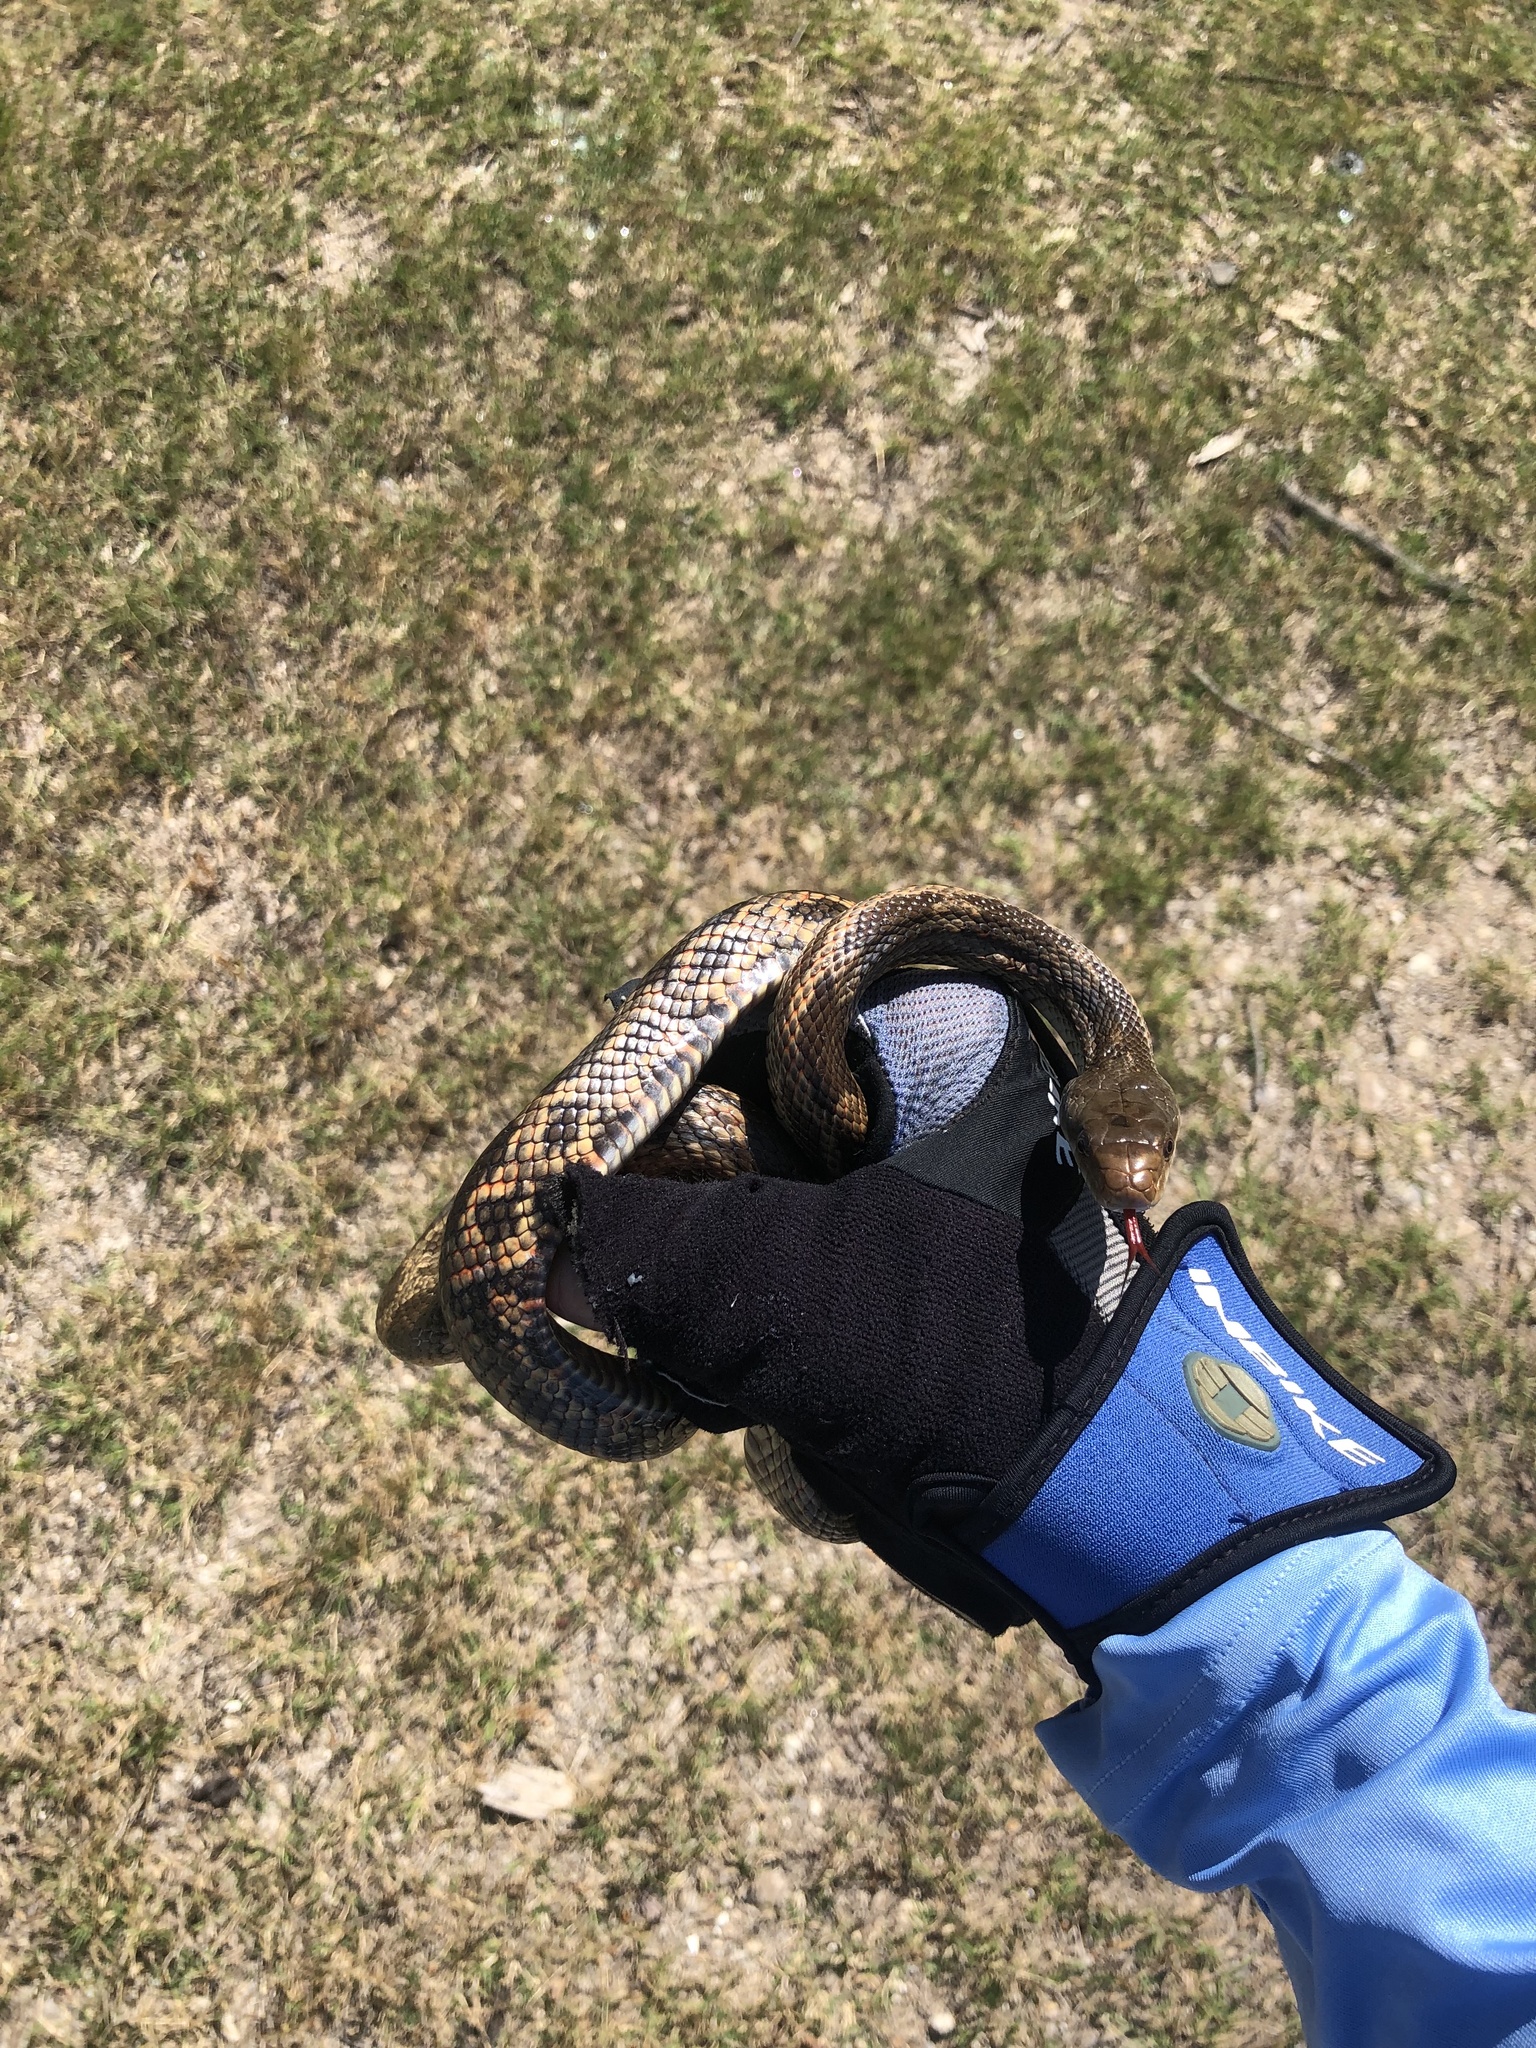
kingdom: Animalia
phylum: Chordata
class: Squamata
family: Colubridae
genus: Pantherophis
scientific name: Pantherophis obsoletus
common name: Black rat snake
